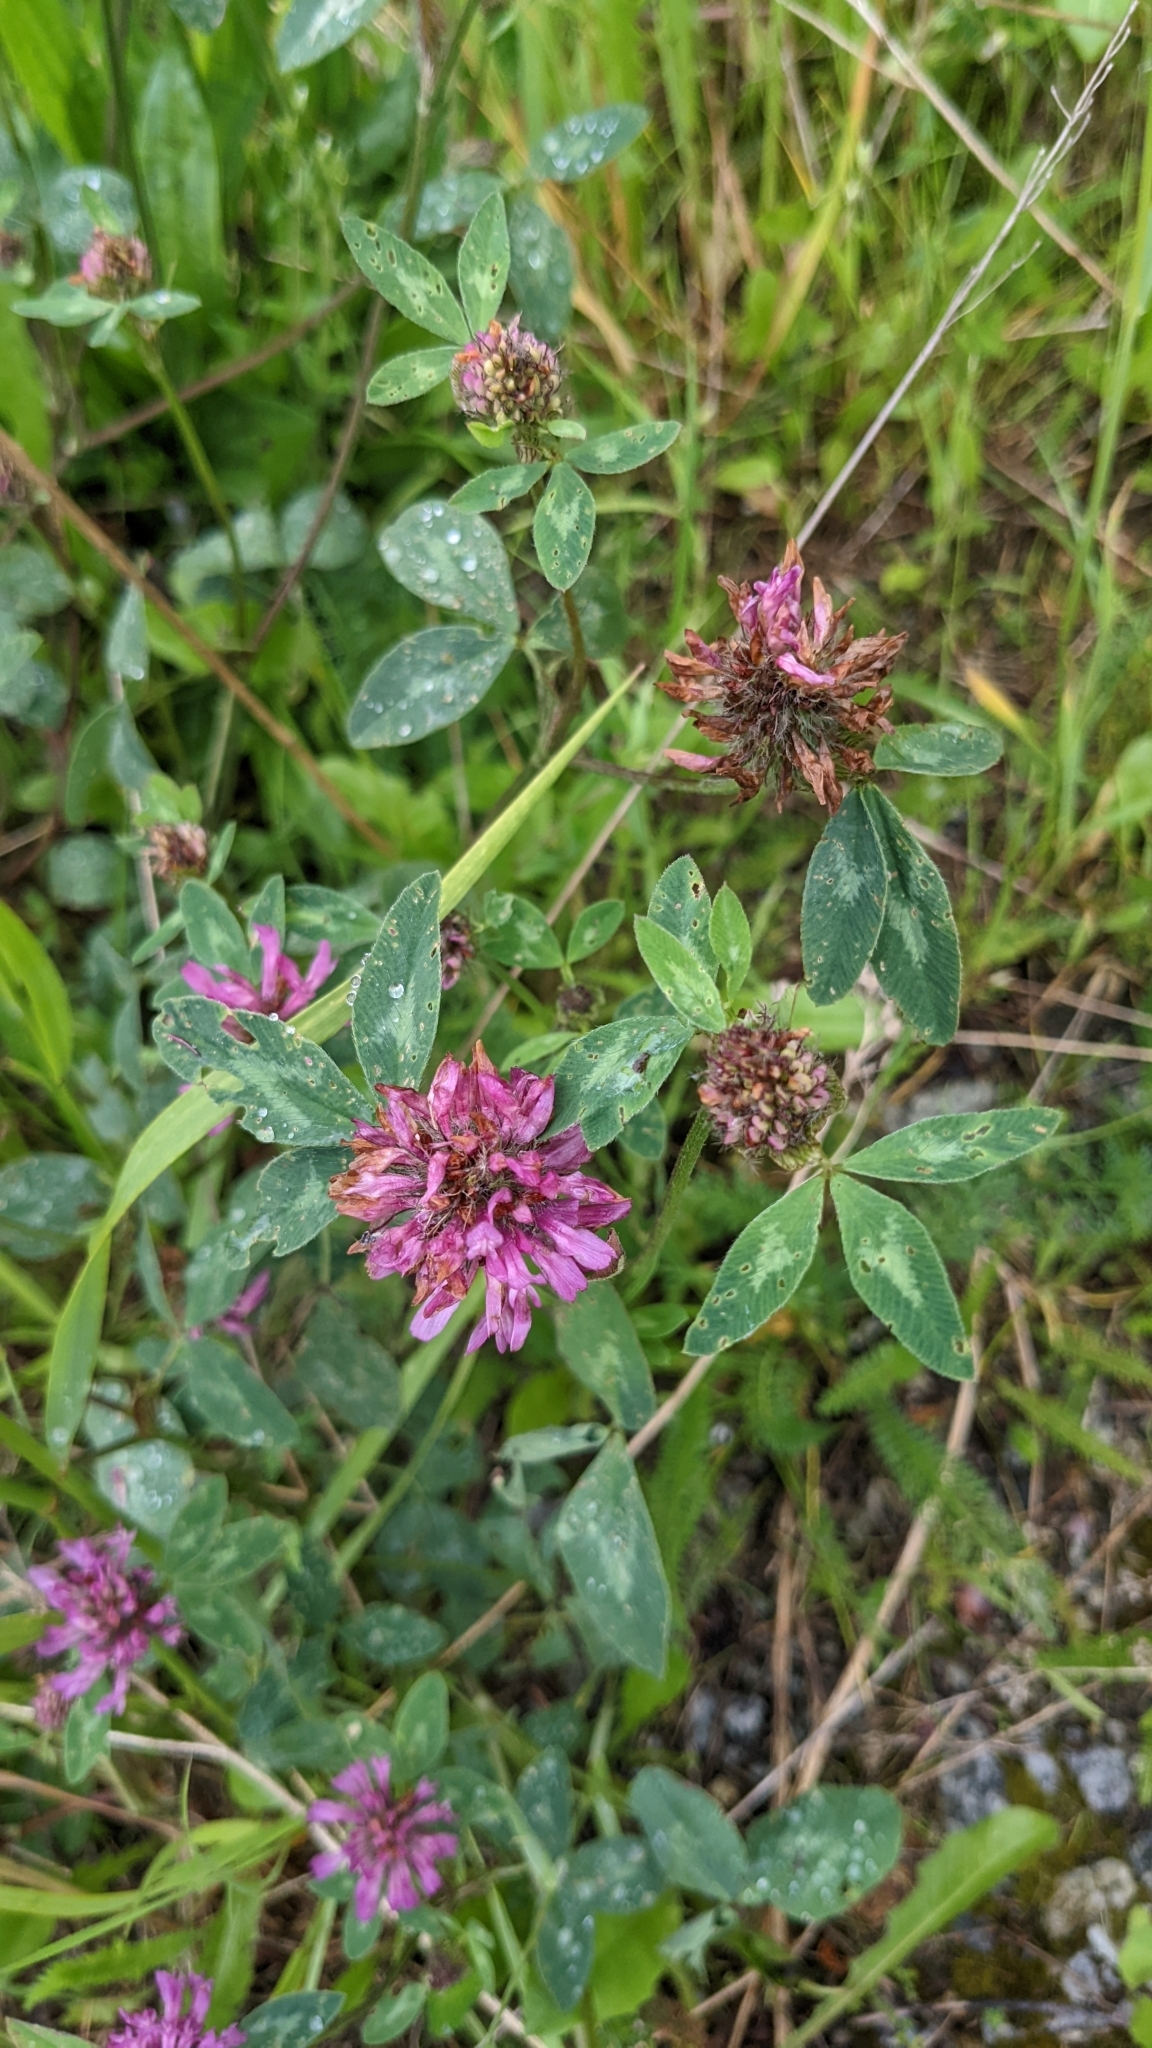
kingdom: Plantae
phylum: Tracheophyta
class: Magnoliopsida
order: Fabales
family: Fabaceae
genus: Trifolium
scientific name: Trifolium pratense
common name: Red clover
